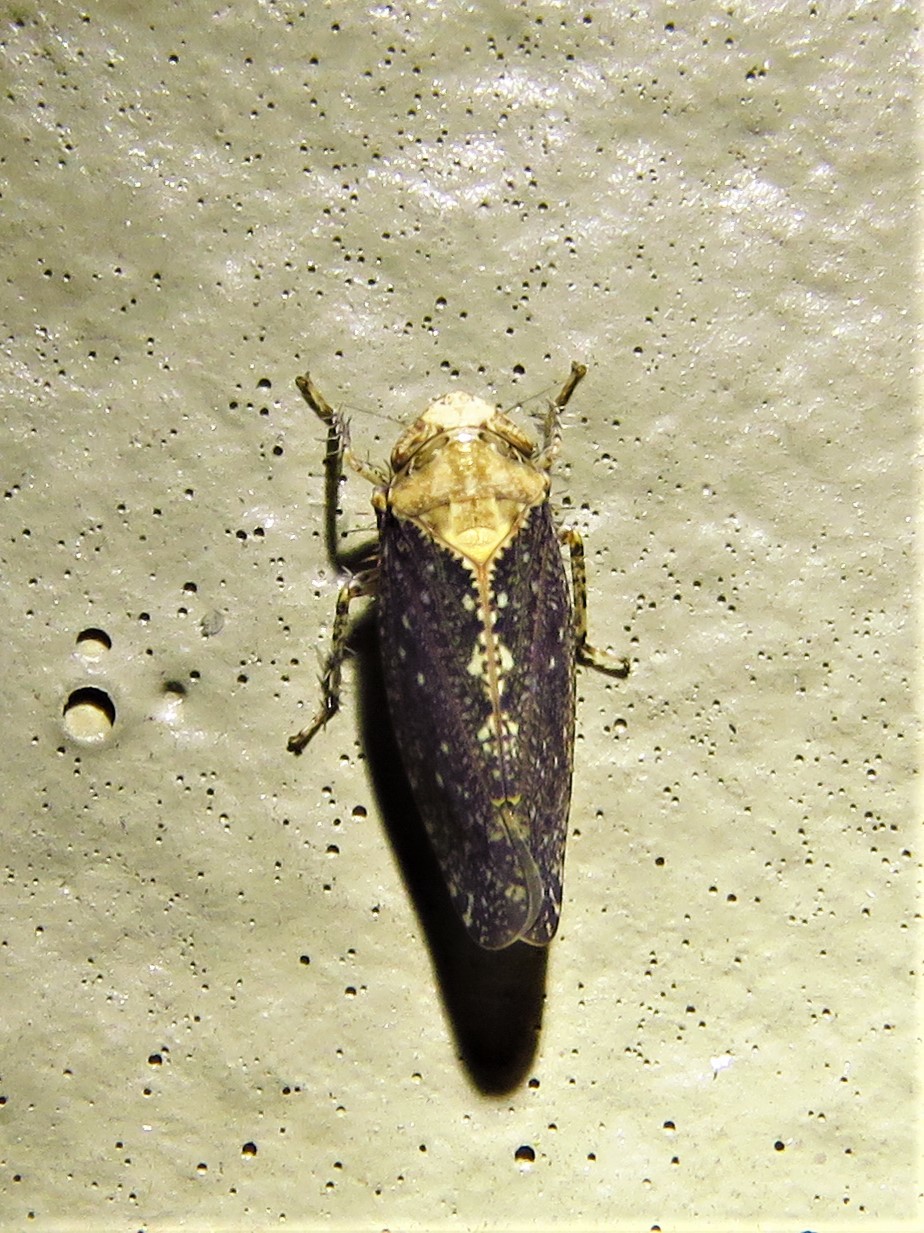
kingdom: Animalia
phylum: Arthropoda
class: Insecta
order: Hemiptera
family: Cicadellidae
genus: Excultanus
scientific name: Excultanus excultus
